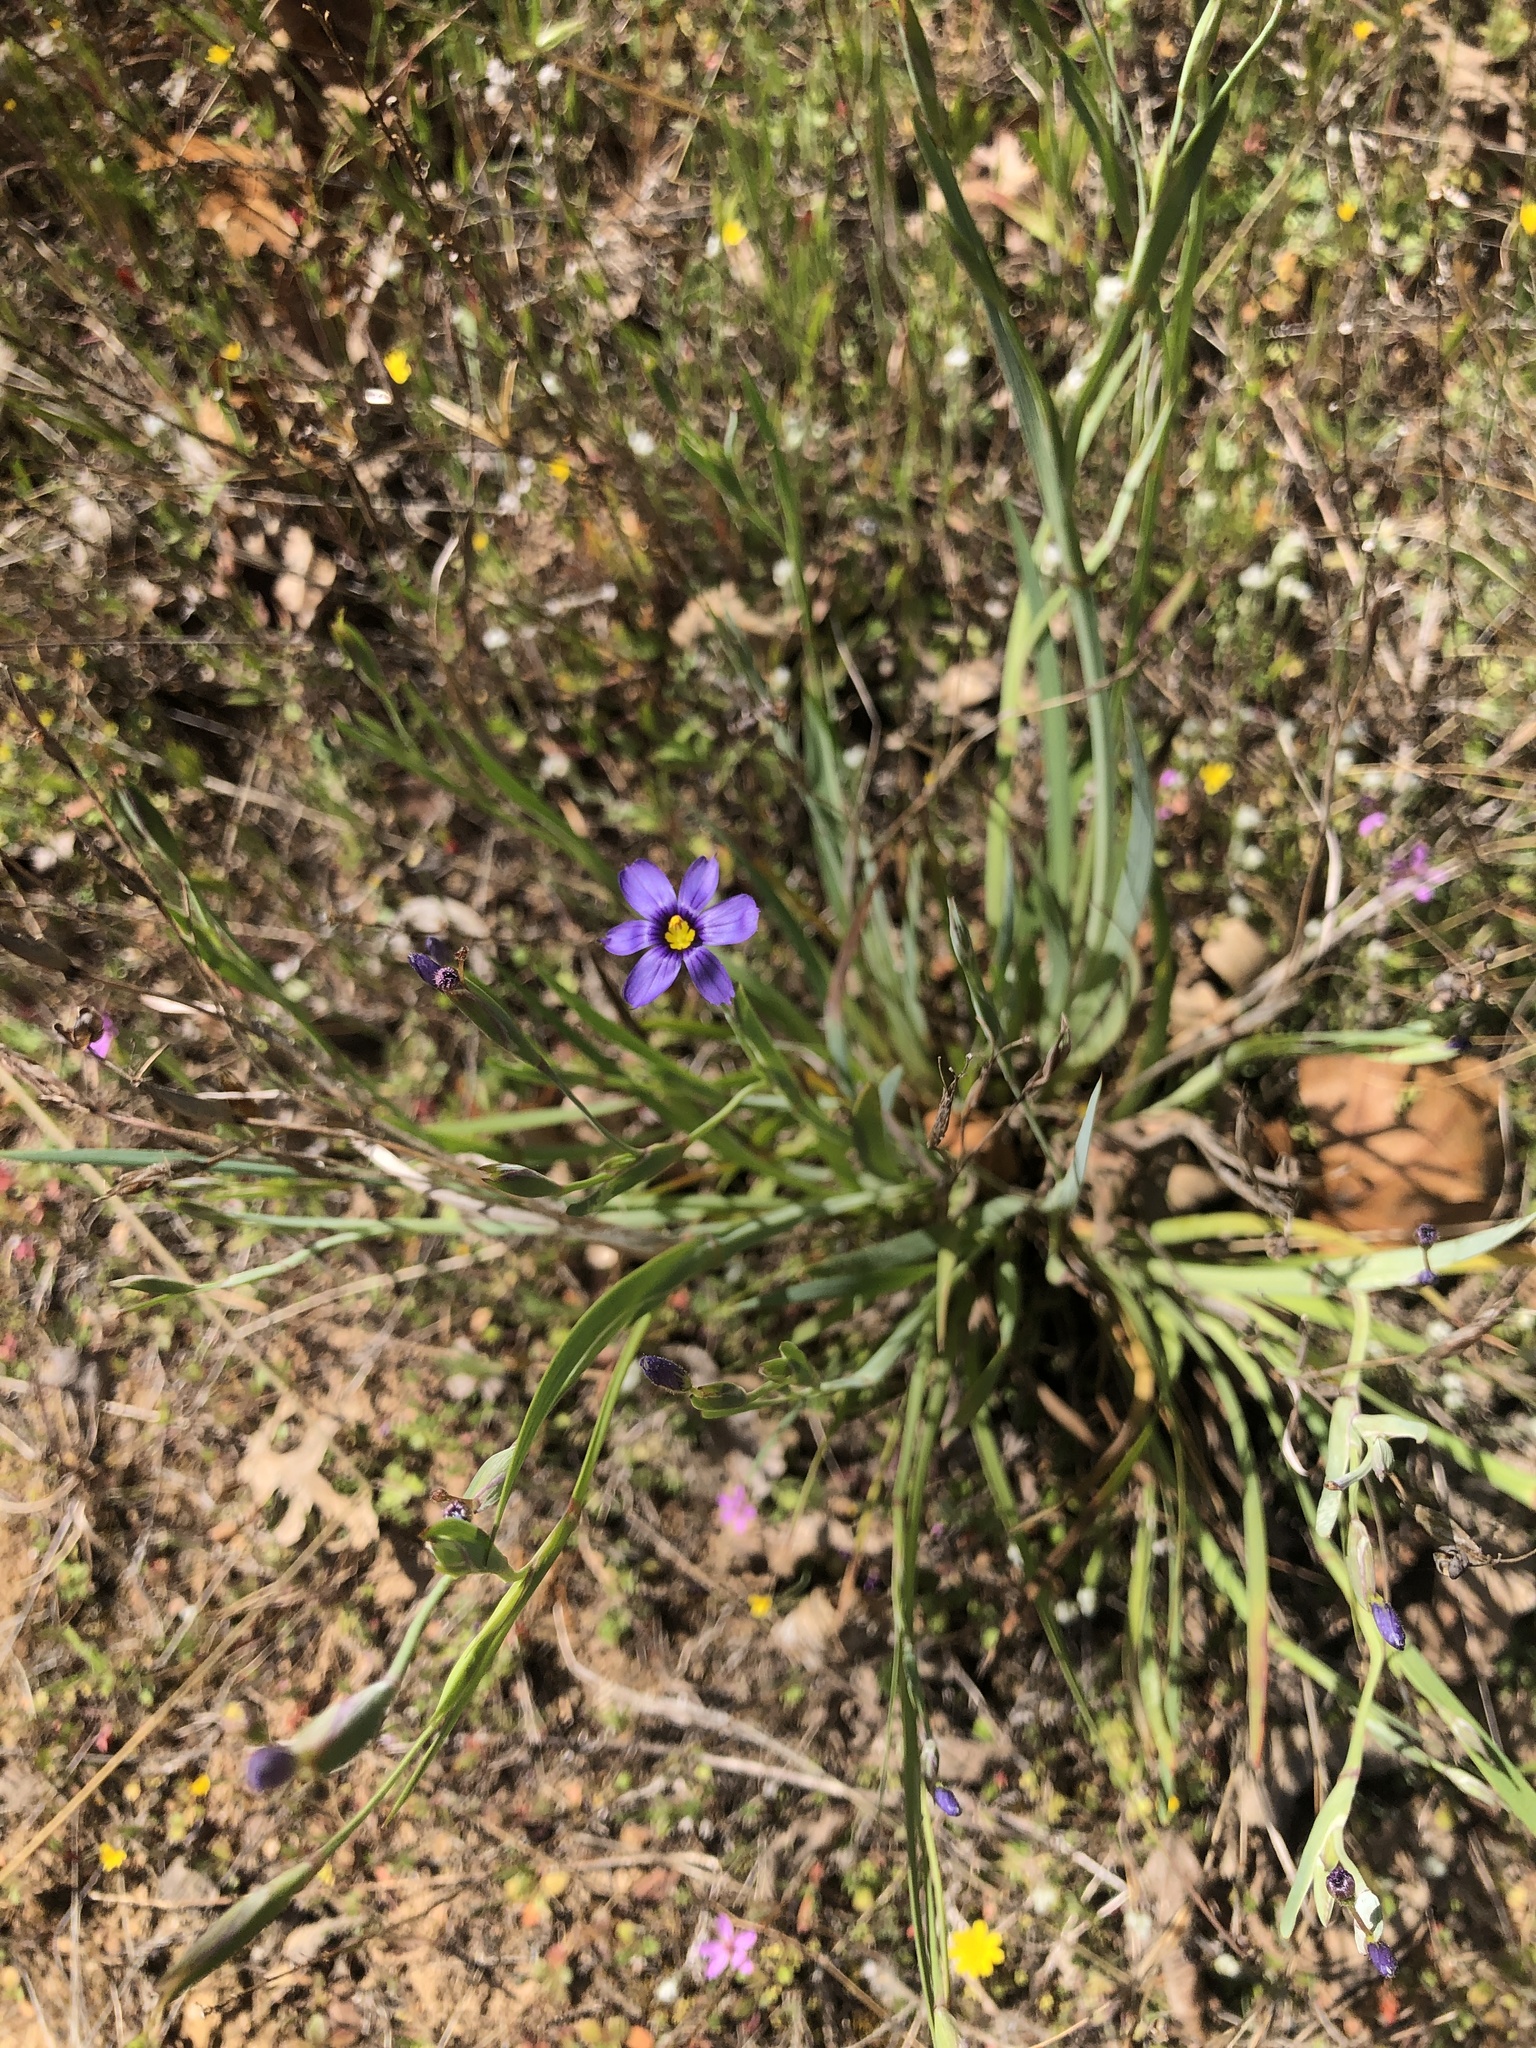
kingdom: Plantae
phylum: Tracheophyta
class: Liliopsida
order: Asparagales
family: Iridaceae
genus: Sisyrinchium
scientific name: Sisyrinchium bellum
